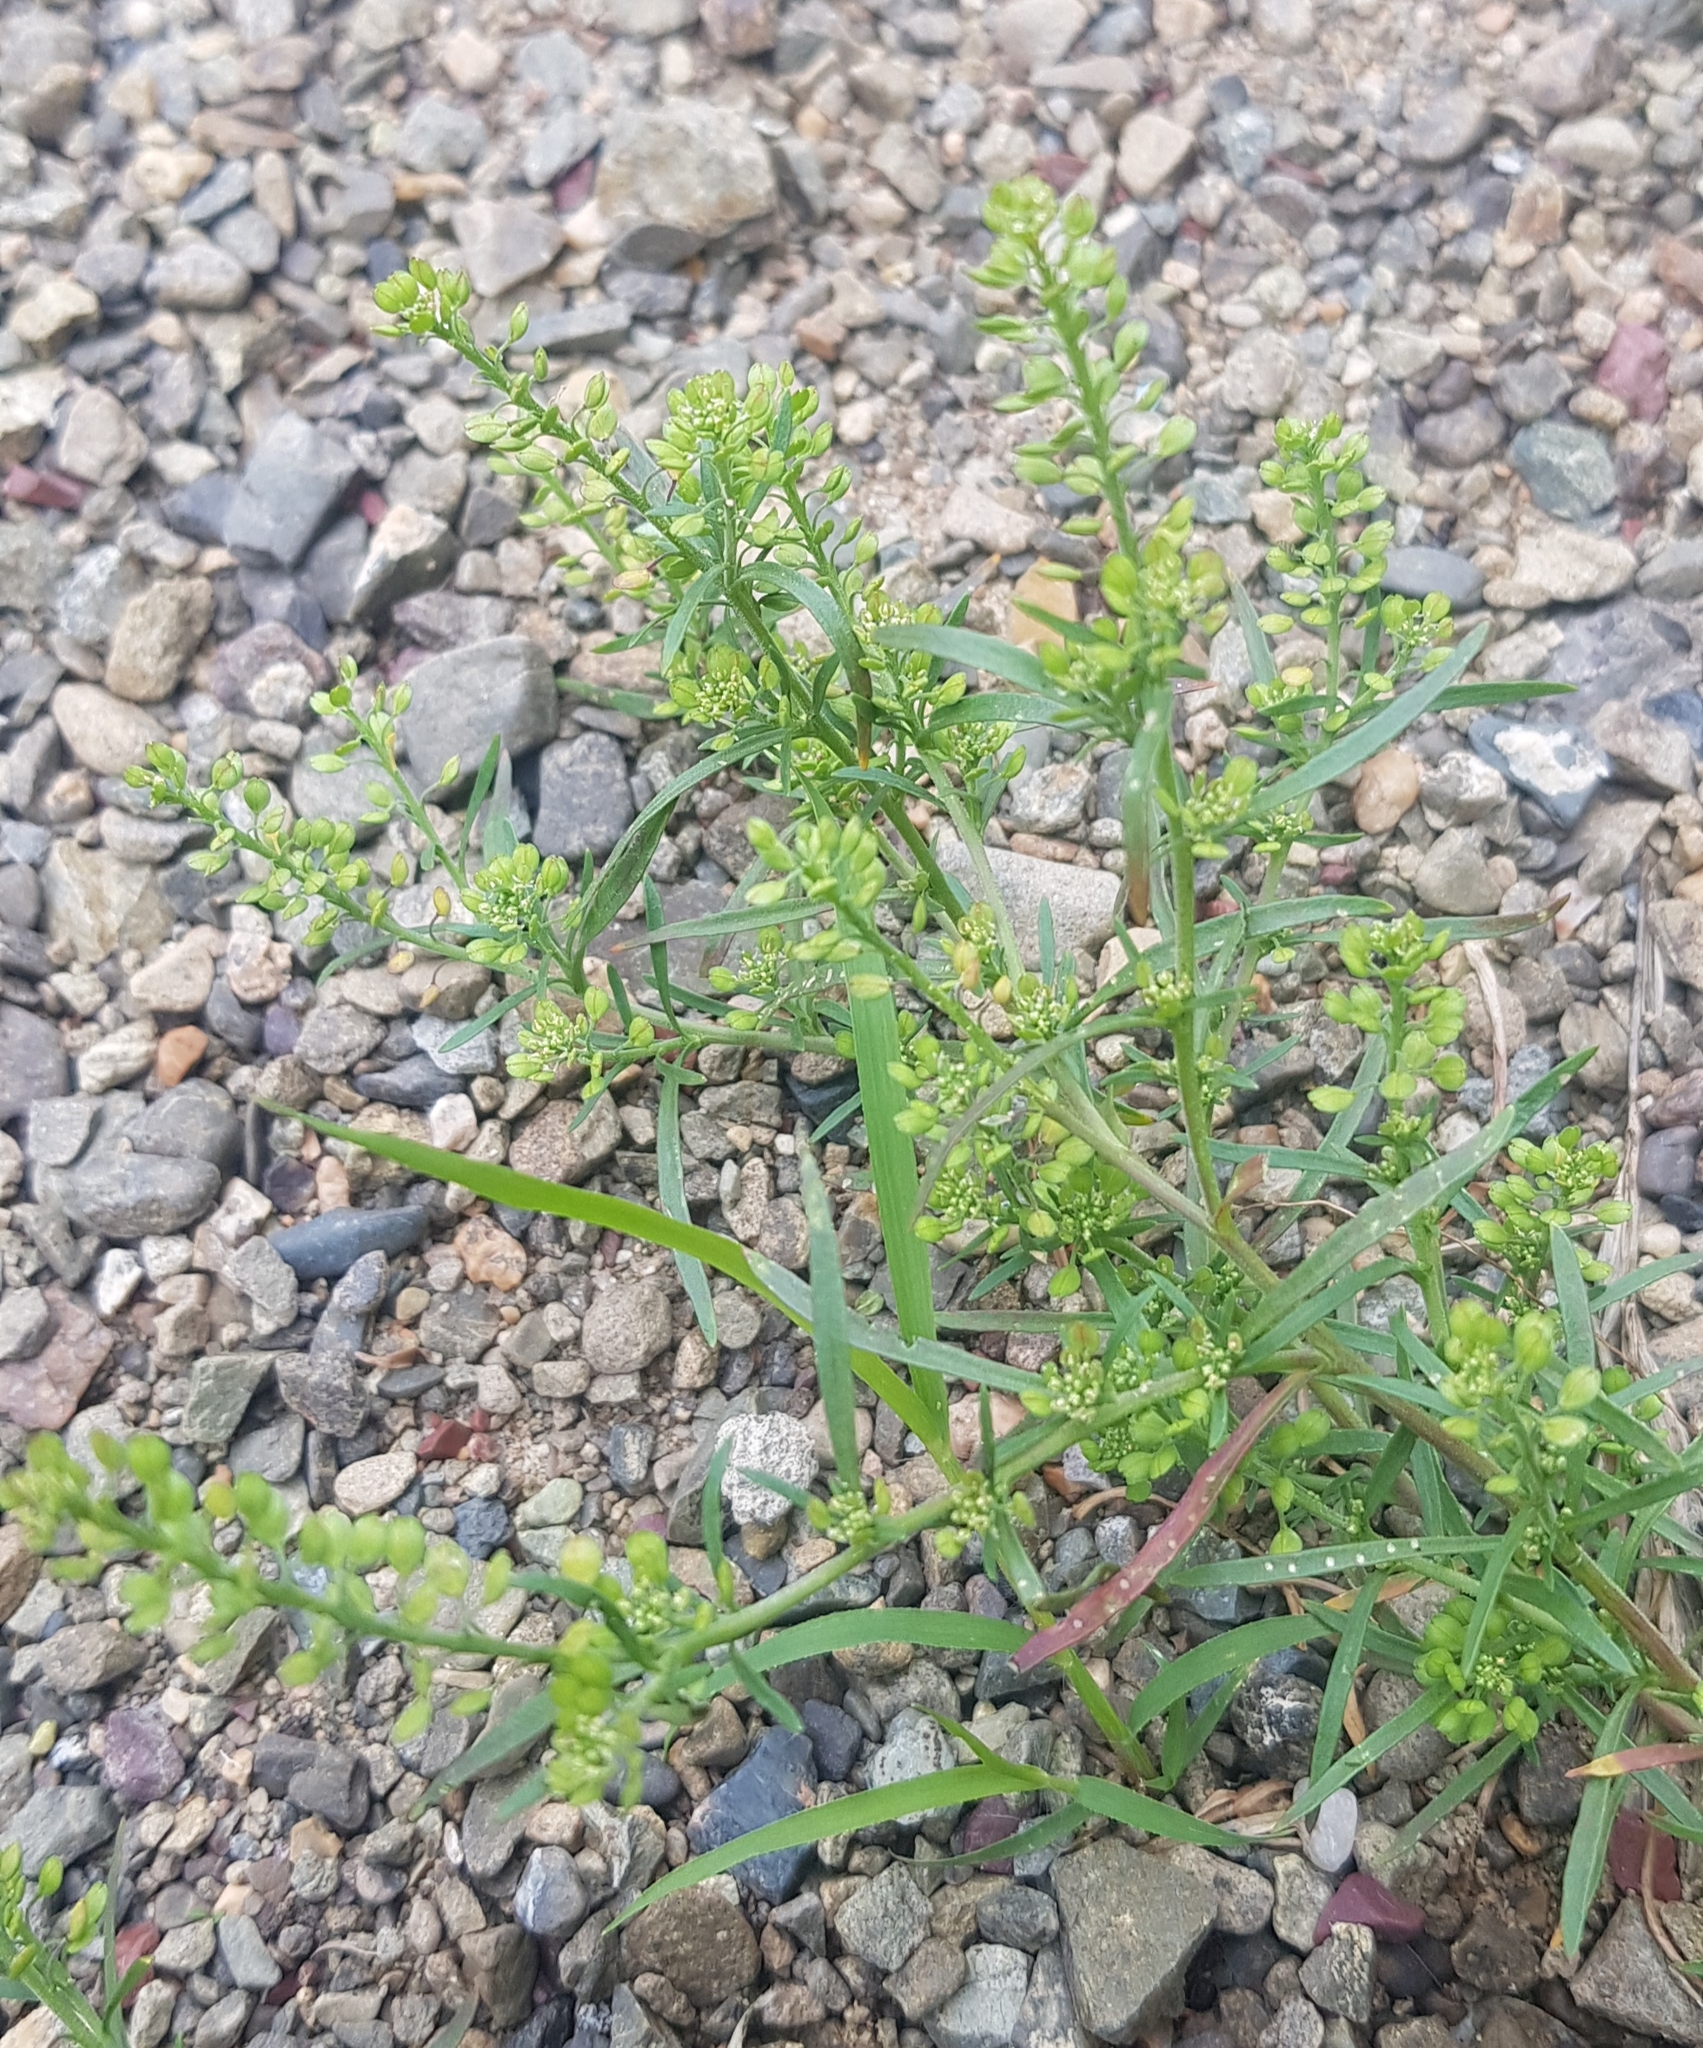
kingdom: Plantae
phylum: Tracheophyta
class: Magnoliopsida
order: Brassicales
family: Brassicaceae
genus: Lepidium
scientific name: Lepidium ruderale
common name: Narrow-leaved pepperwort
